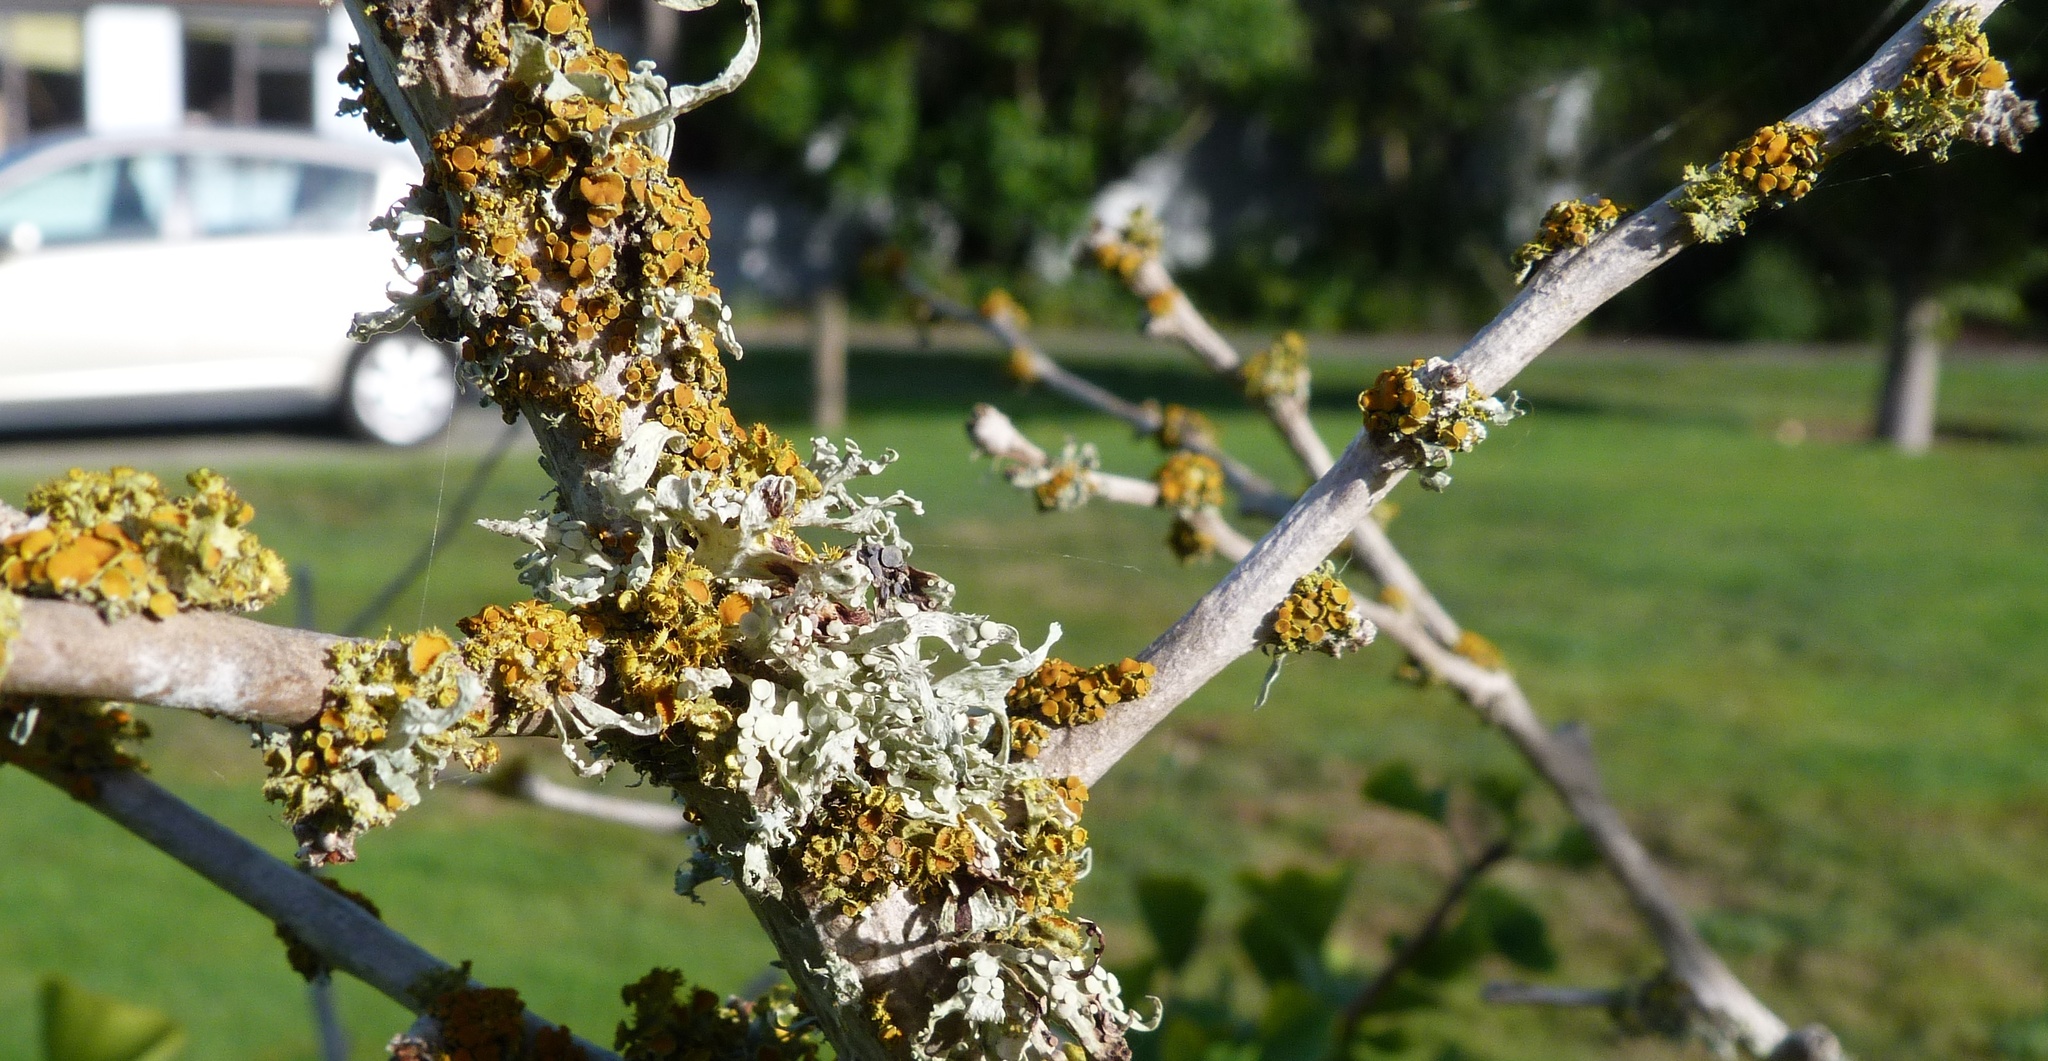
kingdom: Fungi
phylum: Ascomycota
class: Lecanoromycetes
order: Teloschistales
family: Teloschistaceae
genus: Niorma
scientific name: Niorma chrysophthalma
